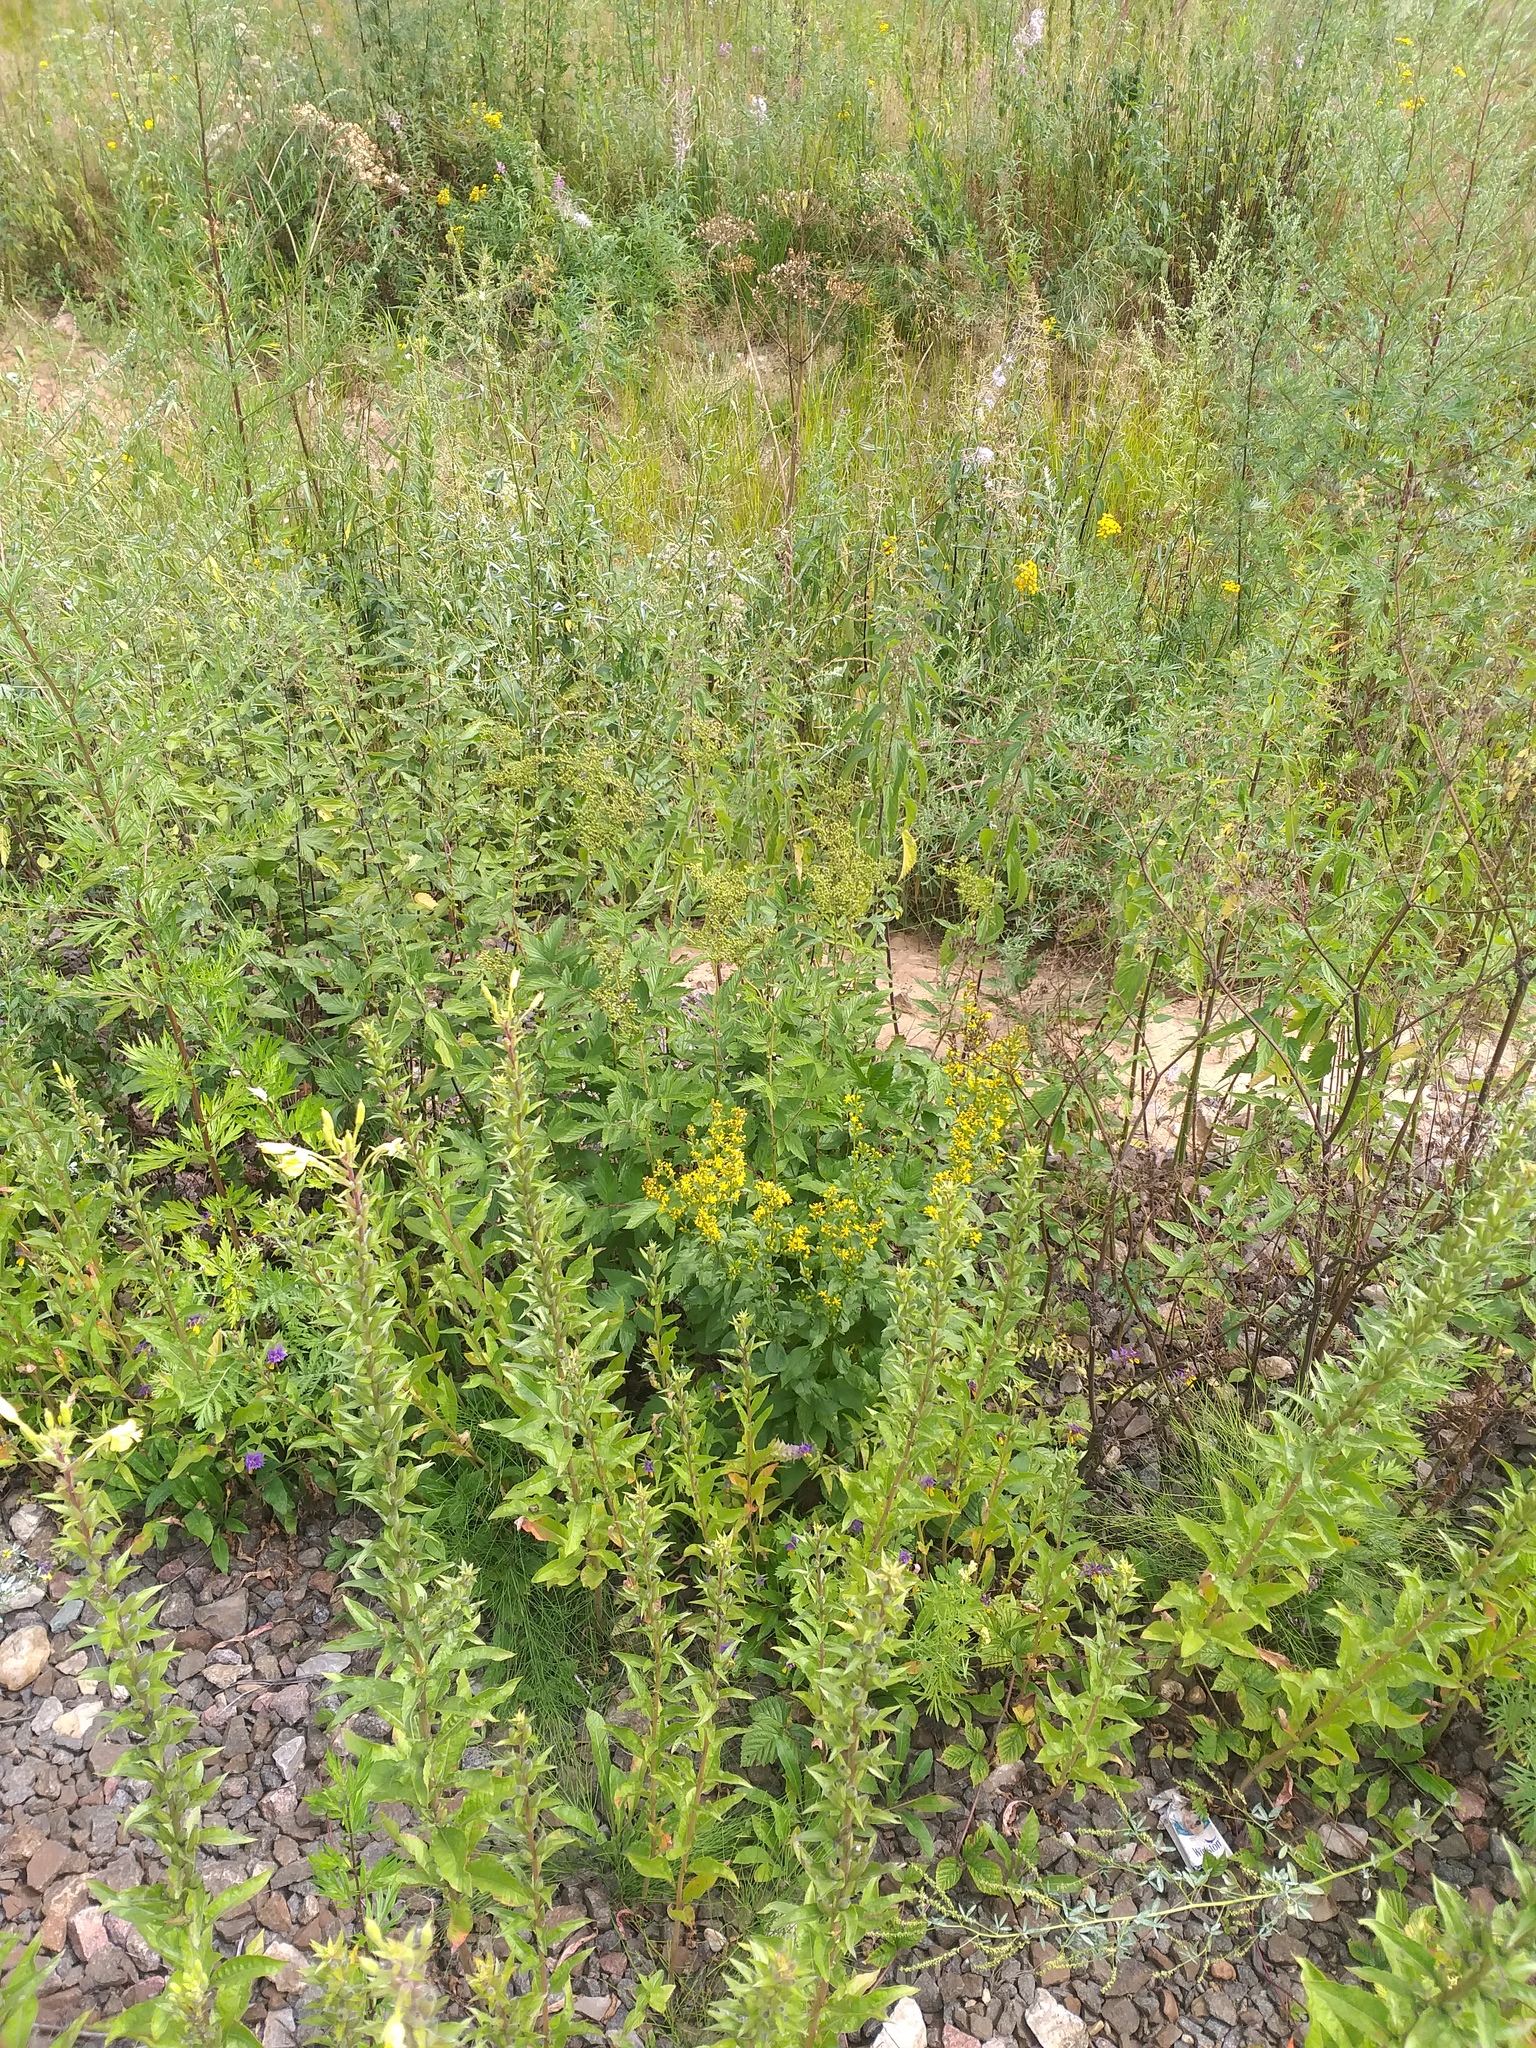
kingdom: Plantae
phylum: Tracheophyta
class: Magnoliopsida
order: Rosales
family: Rosaceae
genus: Filipendula
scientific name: Filipendula ulmaria
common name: Meadowsweet
